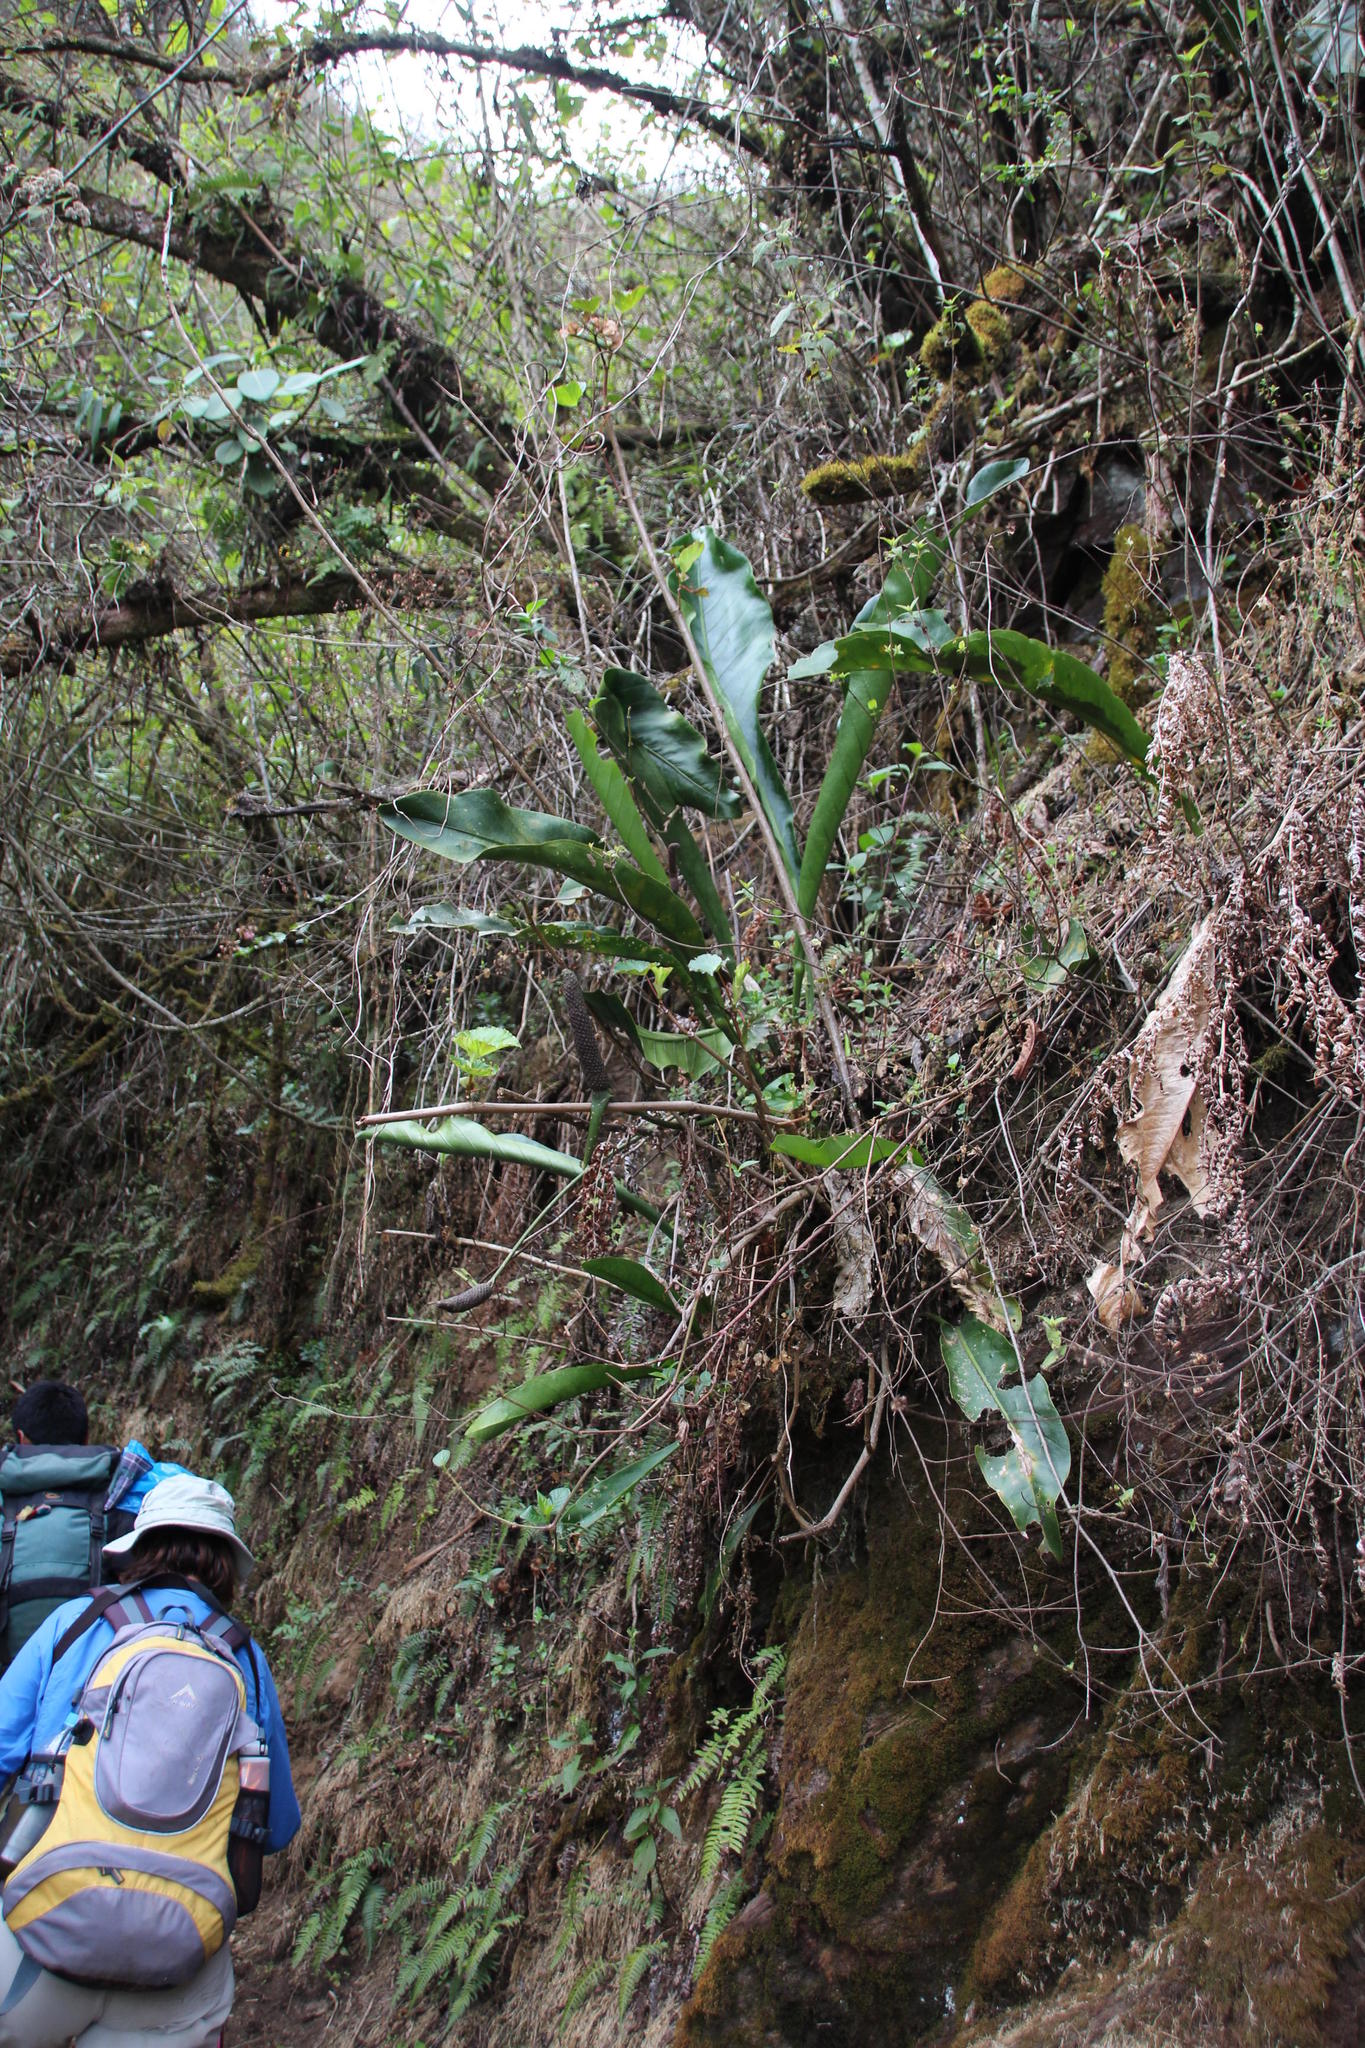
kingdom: Plantae
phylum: Tracheophyta
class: Liliopsida
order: Alismatales
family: Araceae
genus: Anthurium
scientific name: Anthurium dombeyanum
